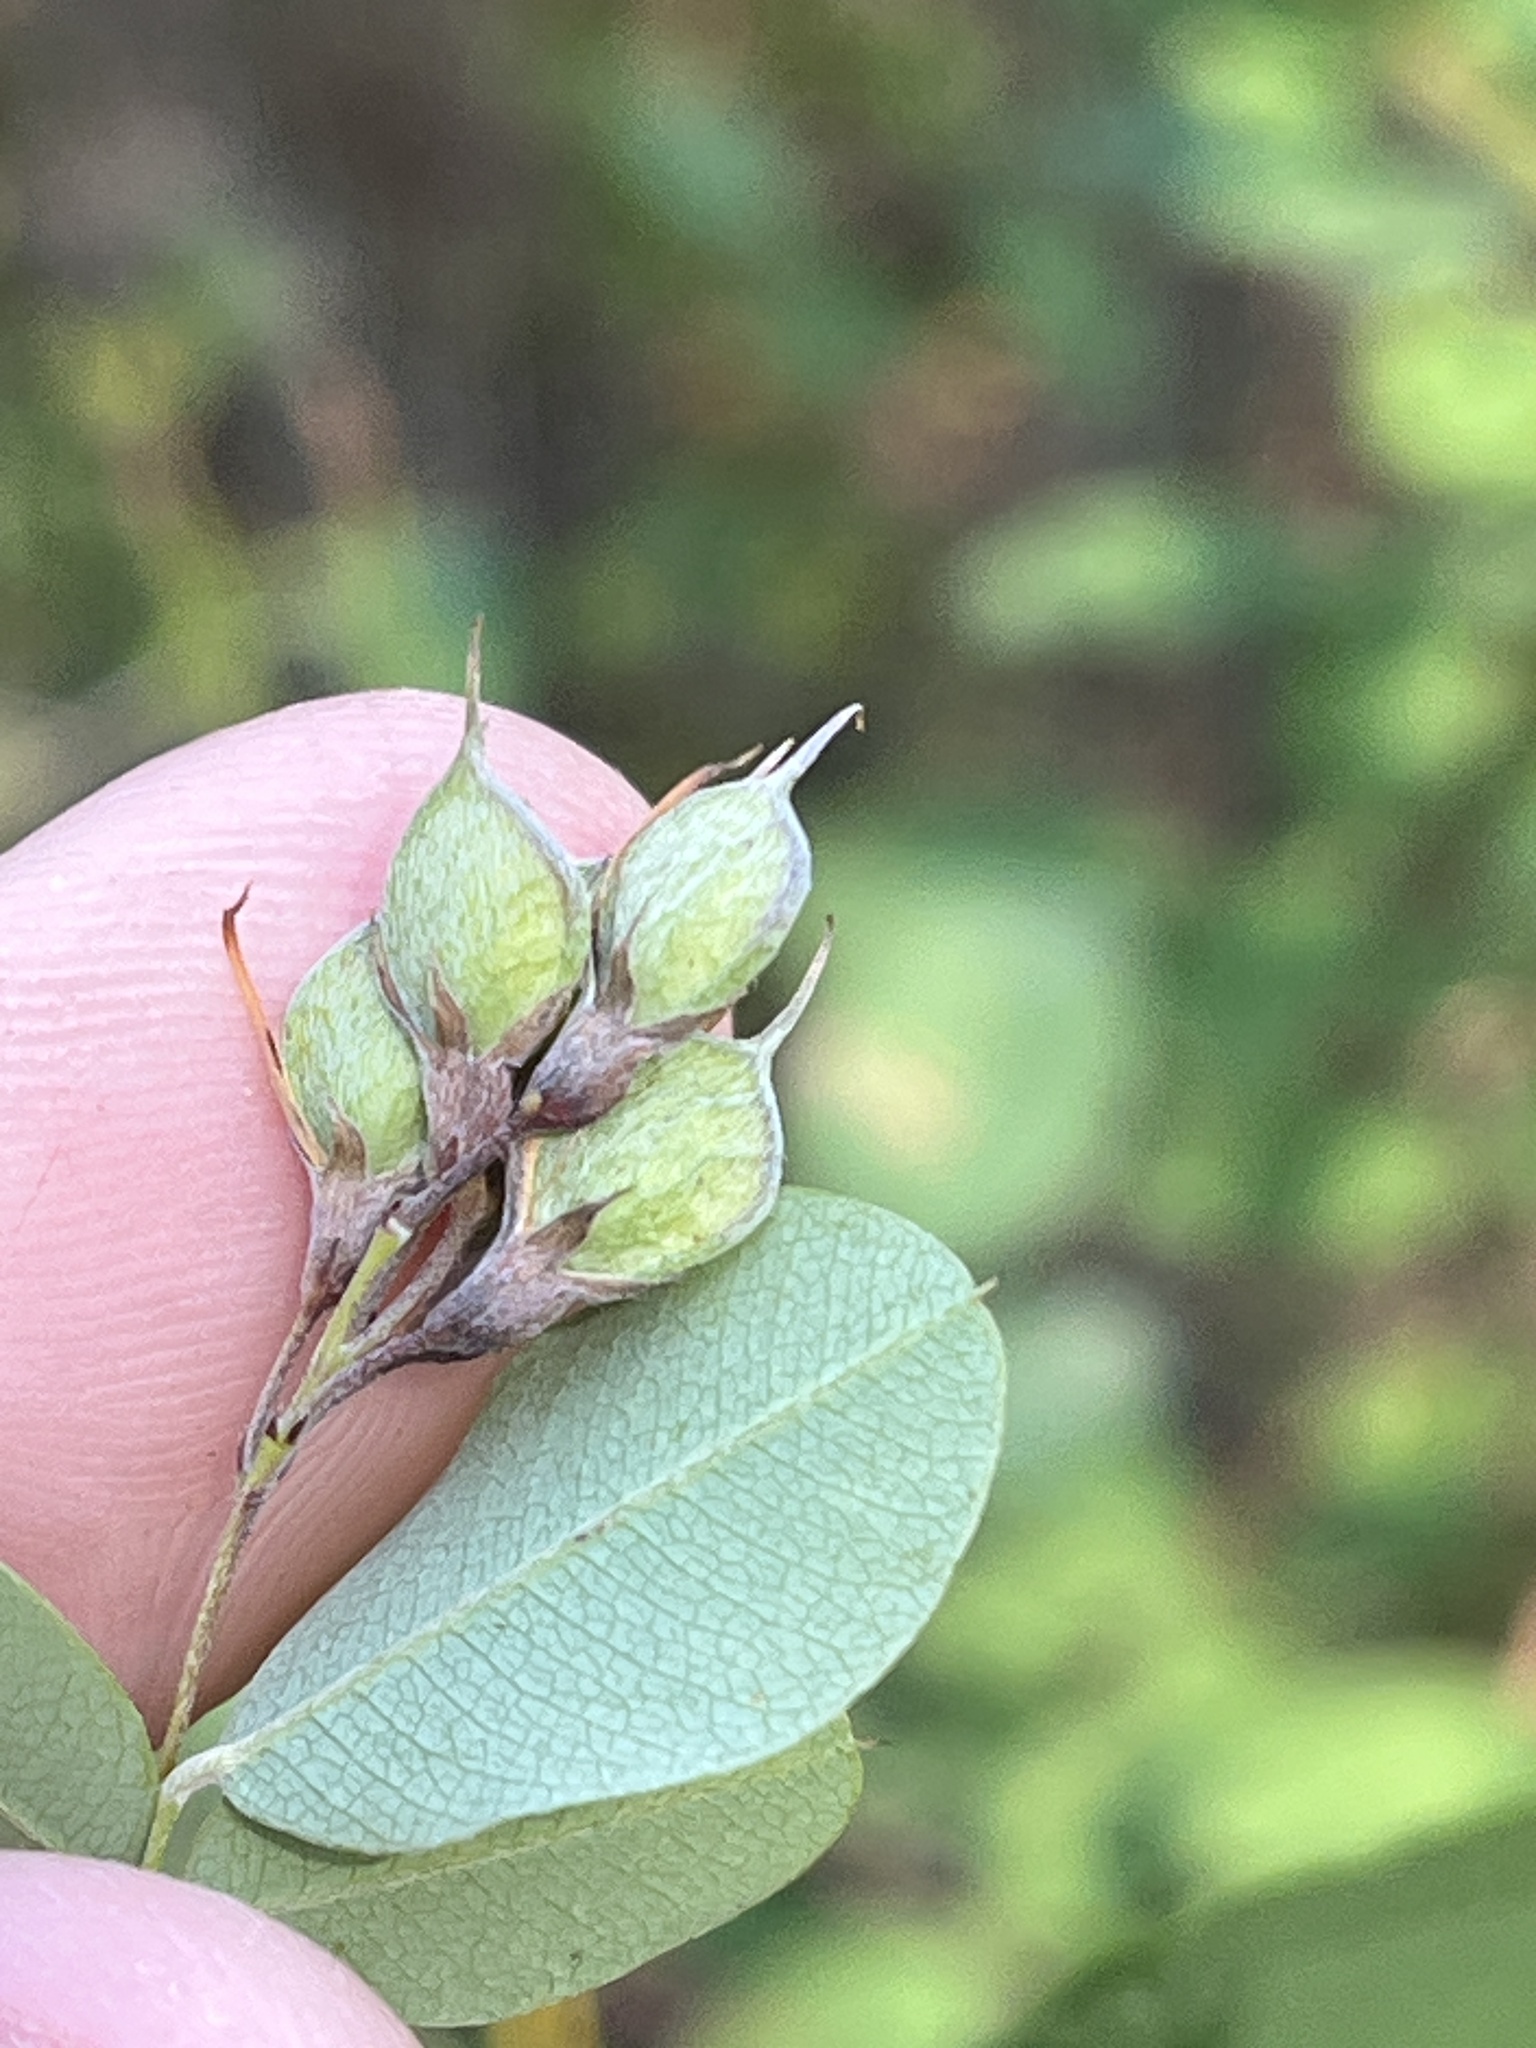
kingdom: Plantae
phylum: Tracheophyta
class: Magnoliopsida
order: Fabales
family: Fabaceae
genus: Lespedeza
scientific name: Lespedeza bicolor
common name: Shrub lespedeza
